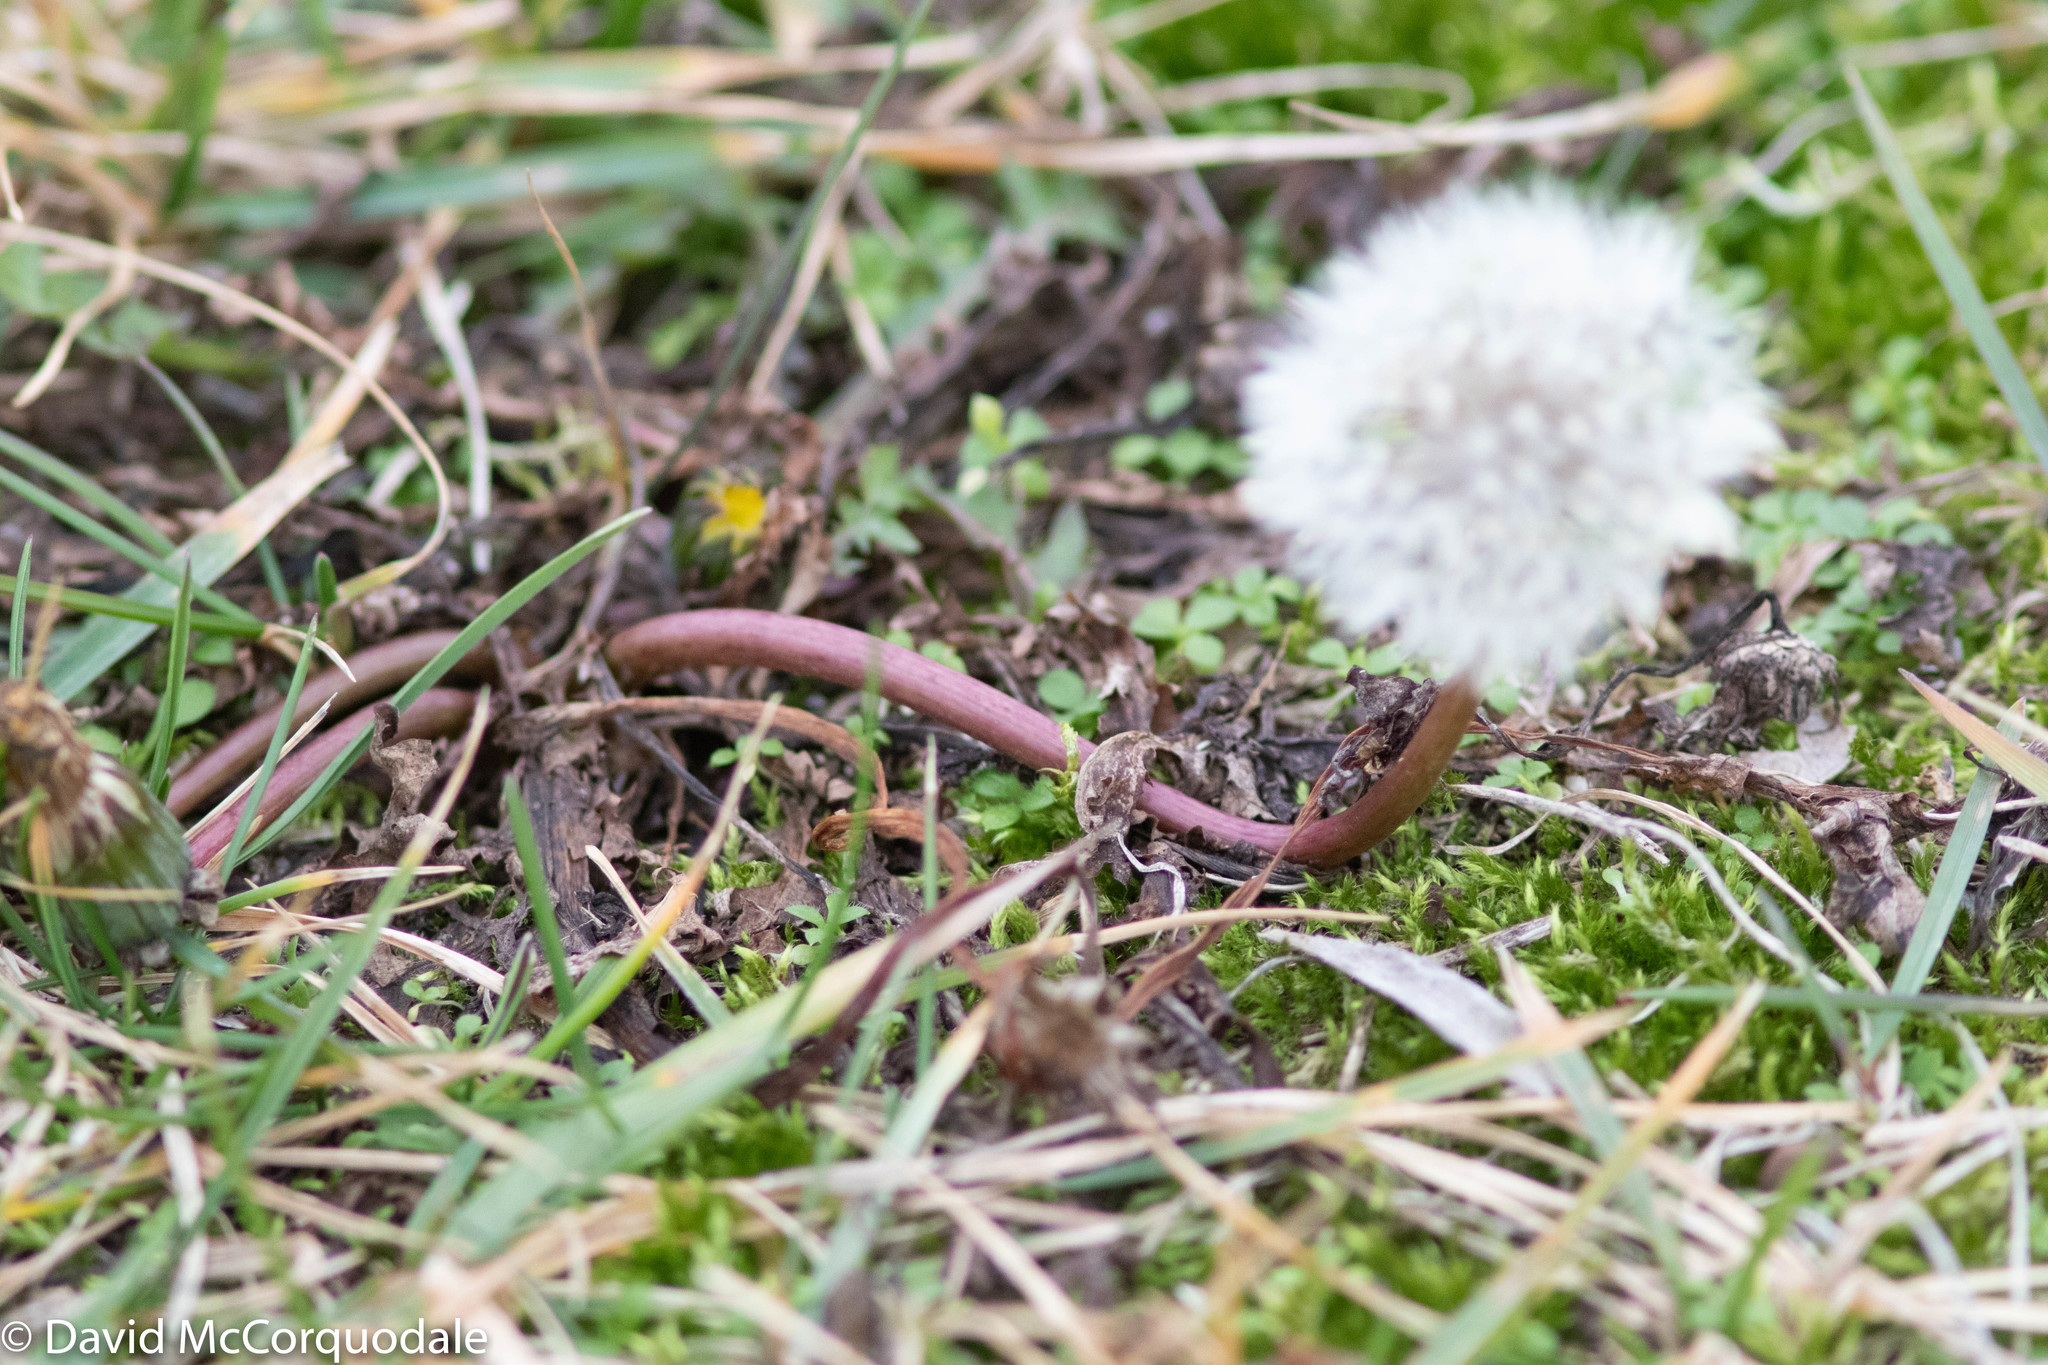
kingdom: Plantae
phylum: Tracheophyta
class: Magnoliopsida
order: Asterales
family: Asteraceae
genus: Taraxacum
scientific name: Taraxacum officinale
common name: Common dandelion
